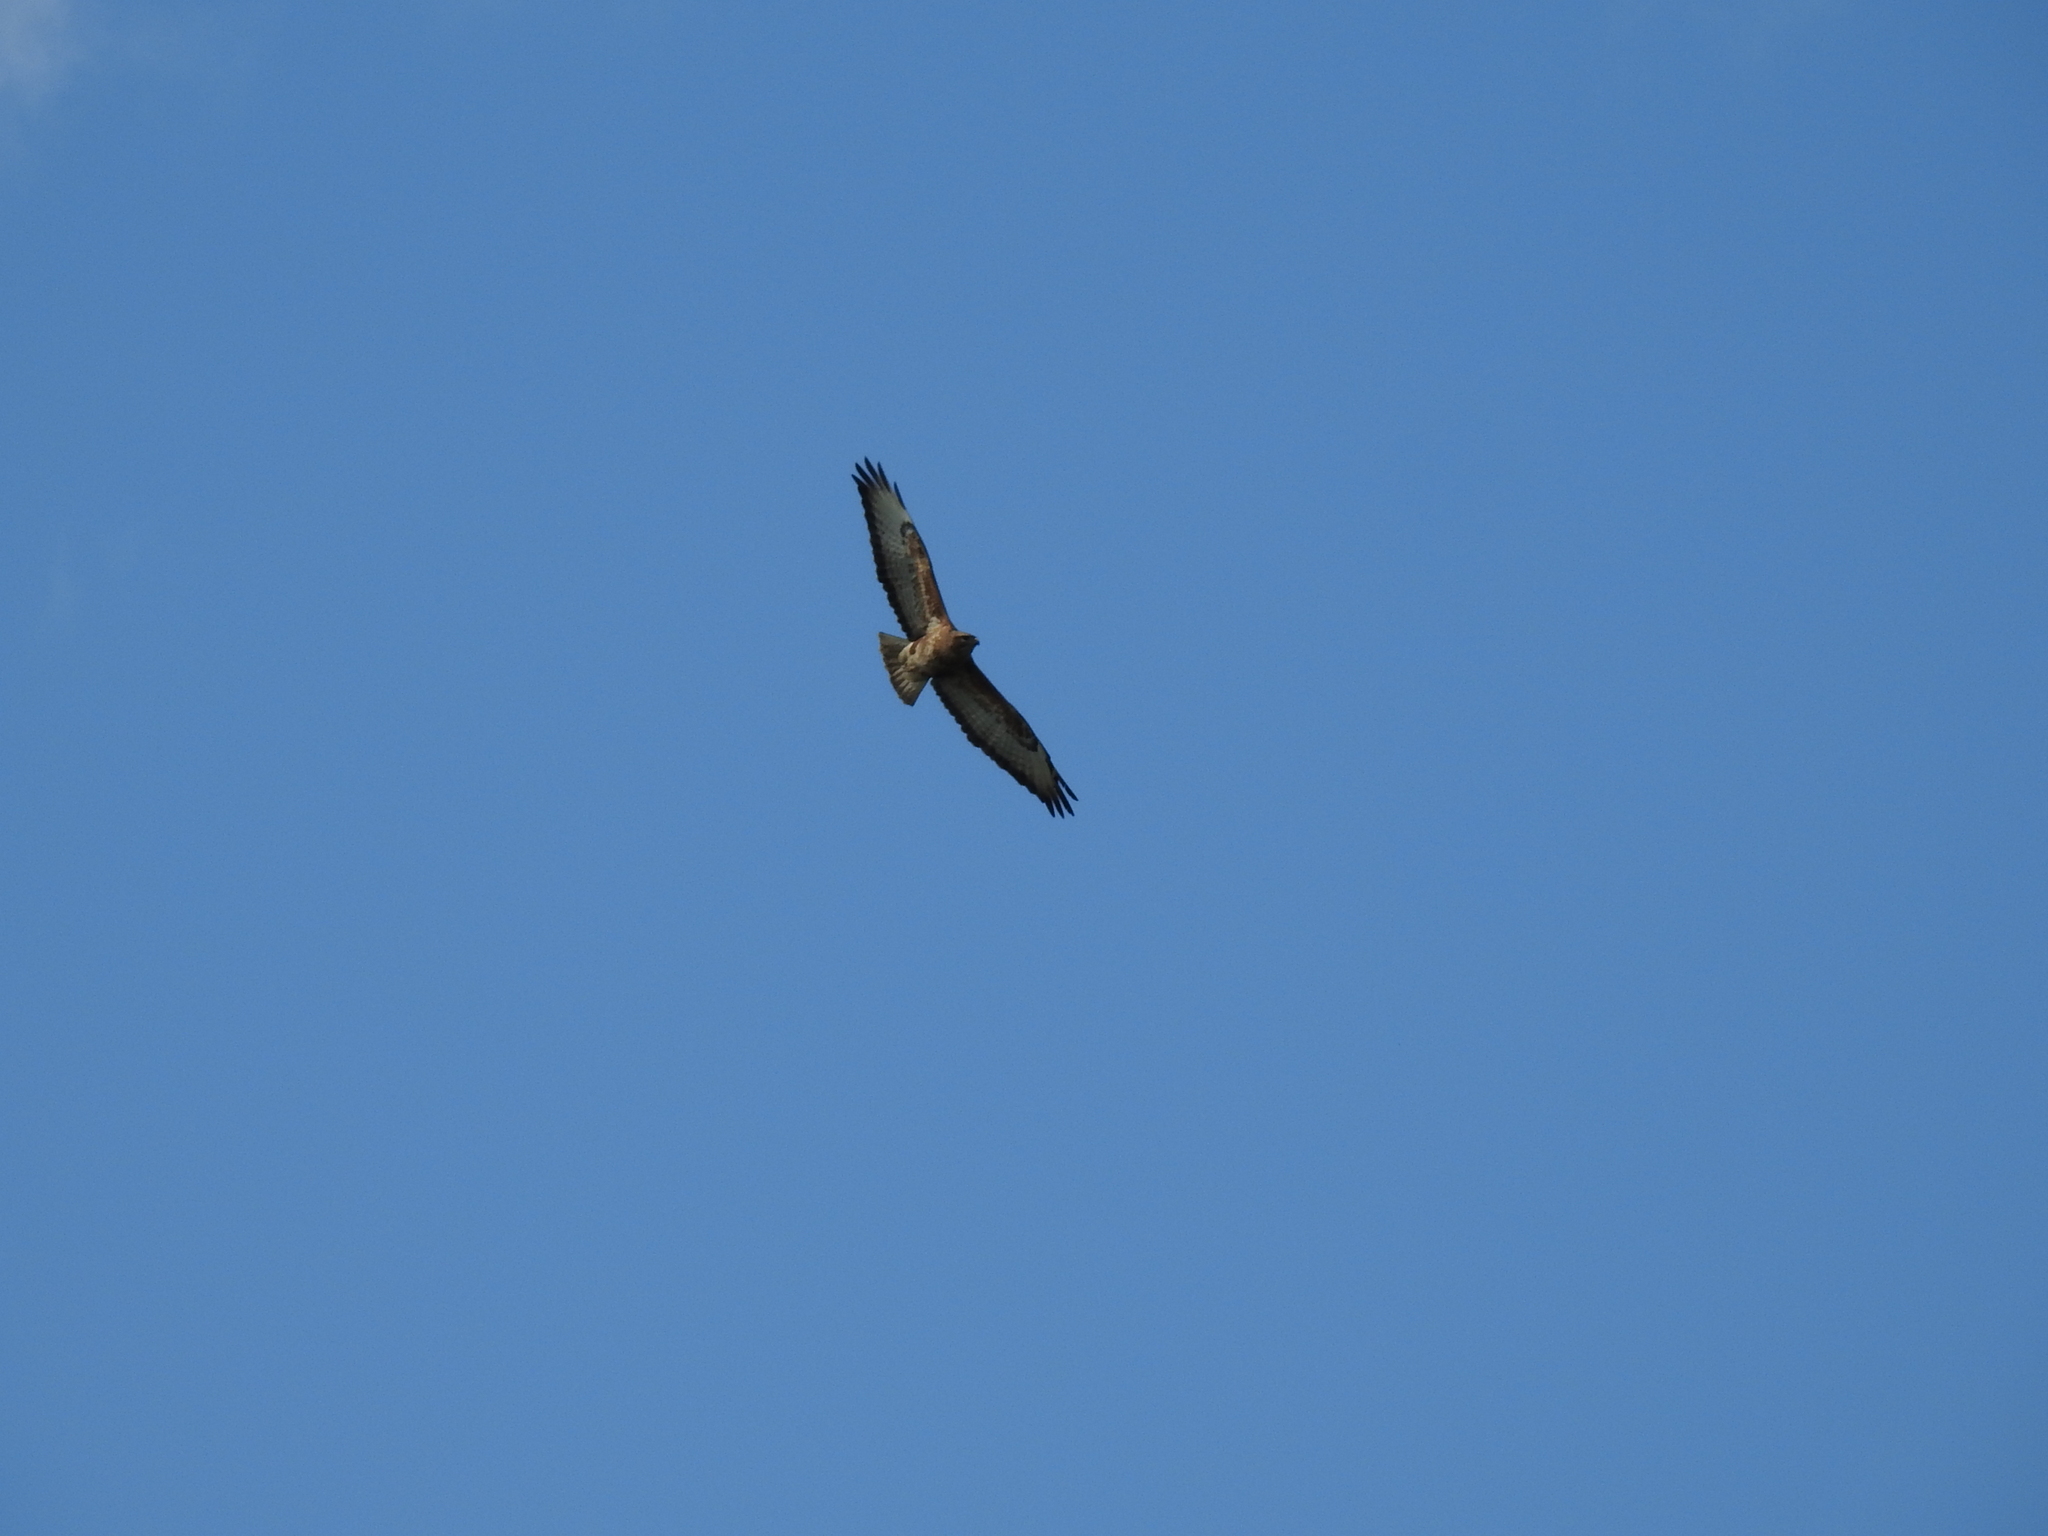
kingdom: Animalia
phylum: Chordata
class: Aves
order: Accipitriformes
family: Accipitridae
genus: Buteo
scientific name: Buteo buteo
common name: Common buzzard
